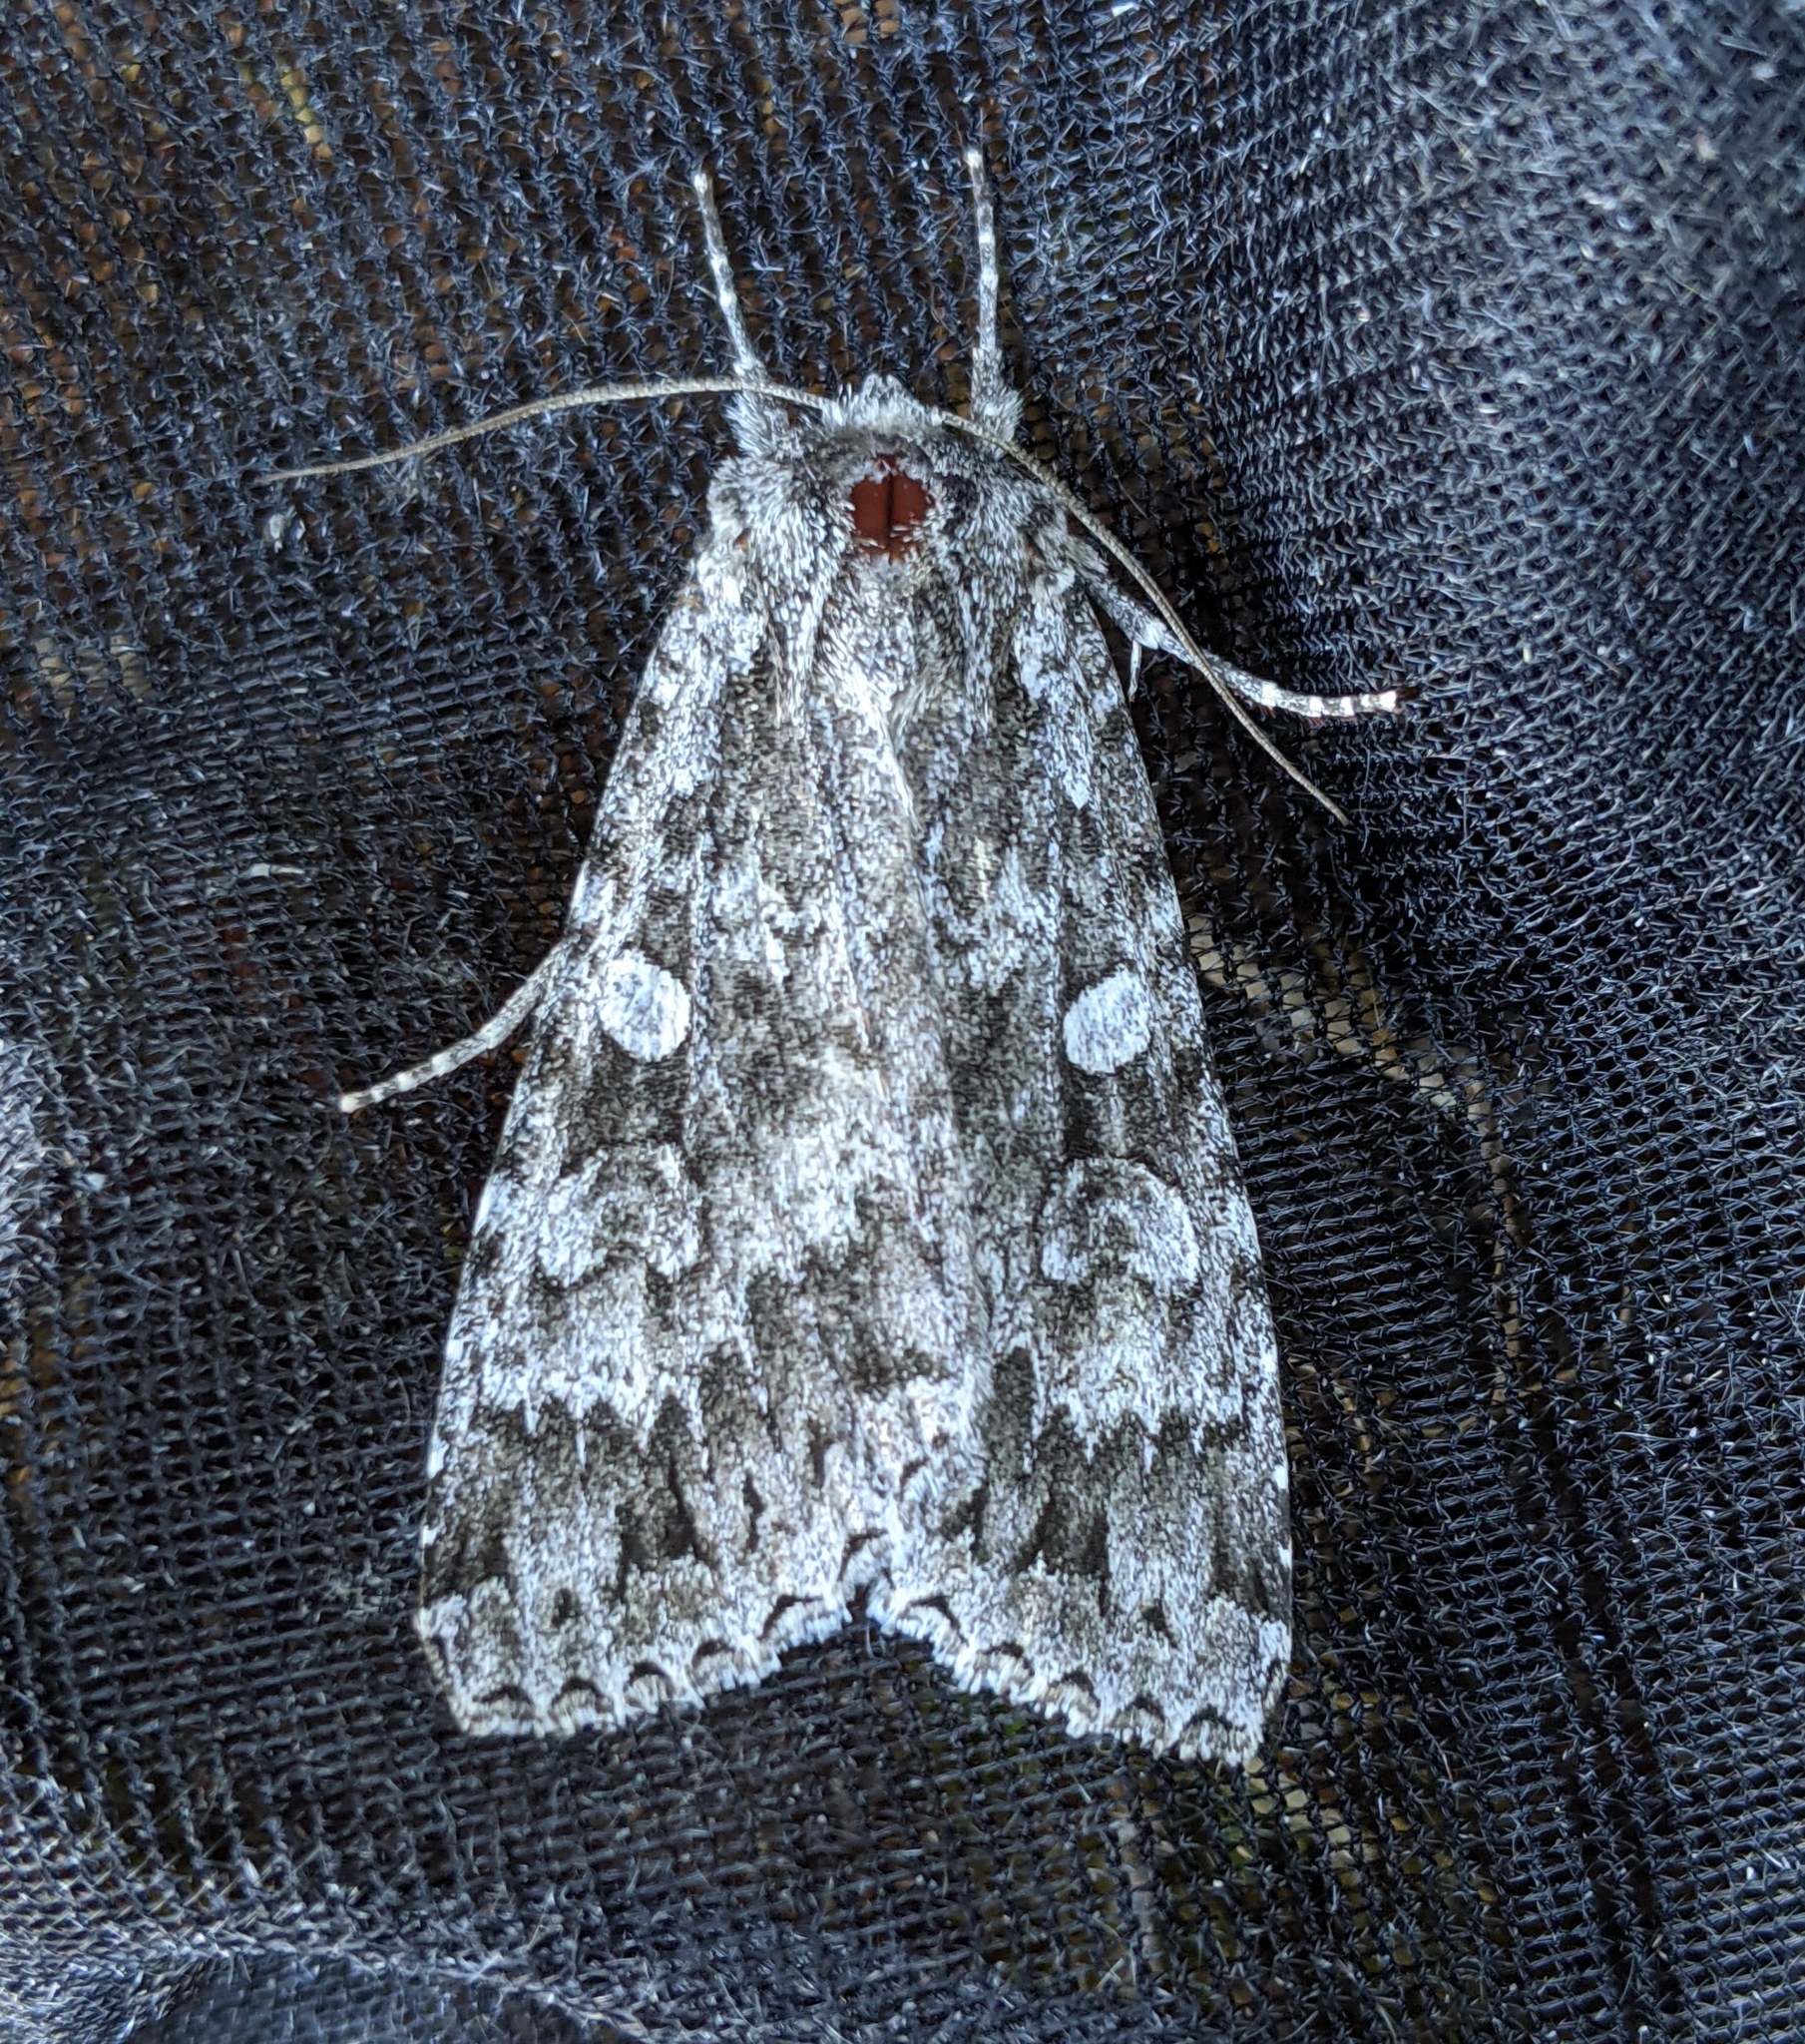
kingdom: Animalia
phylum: Arthropoda
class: Insecta
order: Lepidoptera
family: Noctuidae
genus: Eurois
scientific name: Eurois occulta
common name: Great brocade
